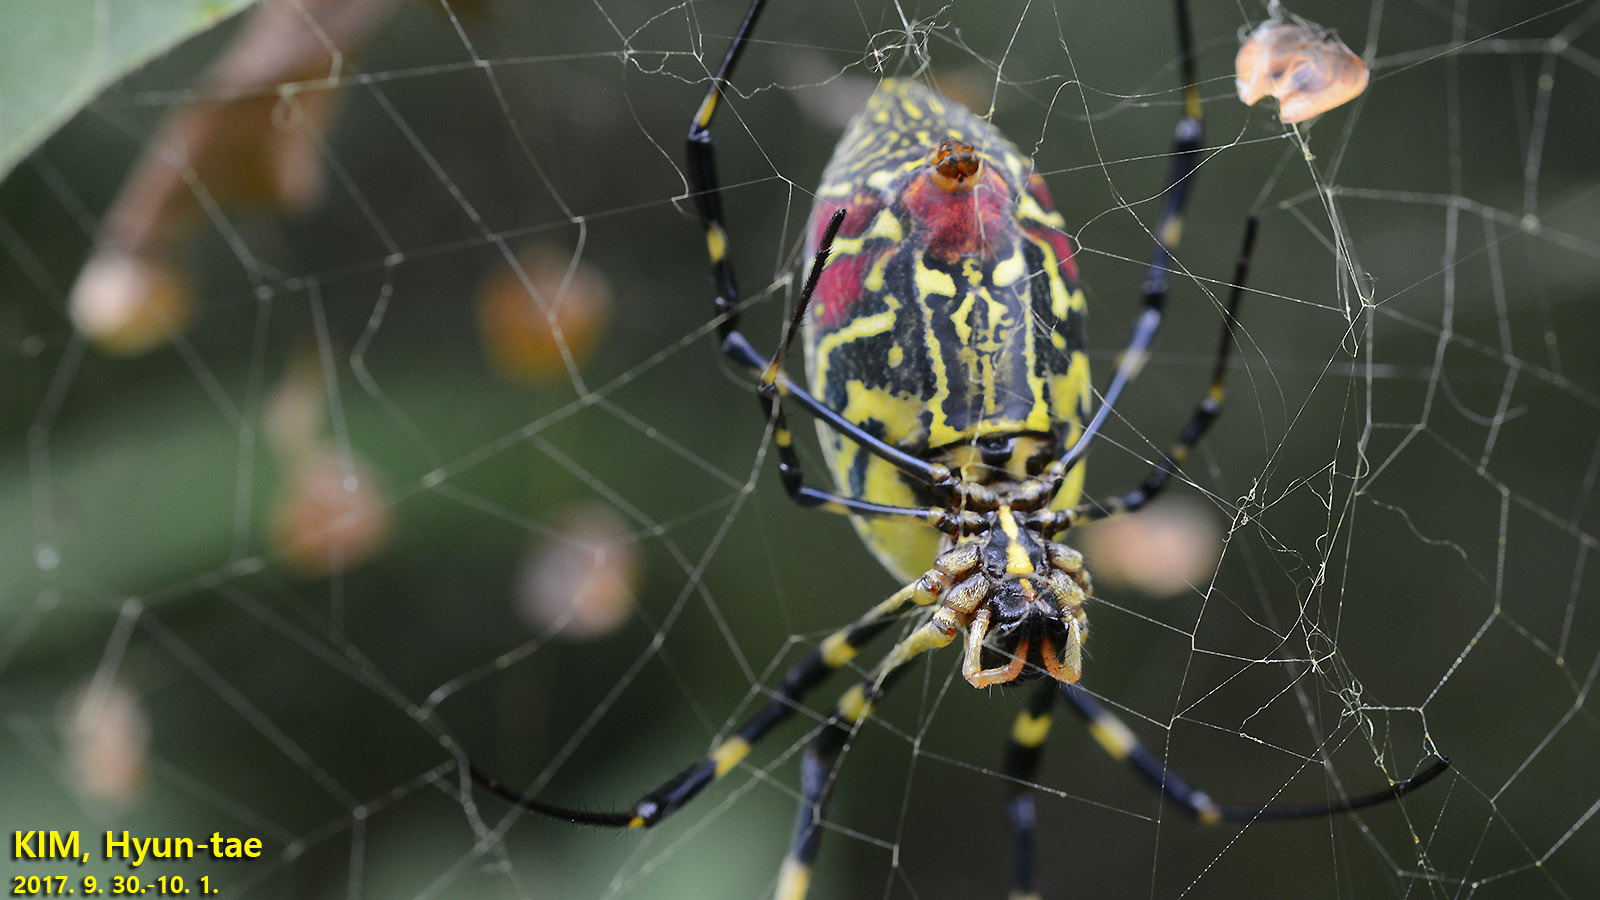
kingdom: Animalia
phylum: Arthropoda
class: Arachnida
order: Araneae
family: Araneidae
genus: Trichonephila
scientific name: Trichonephila clavata
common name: Jorō spider
